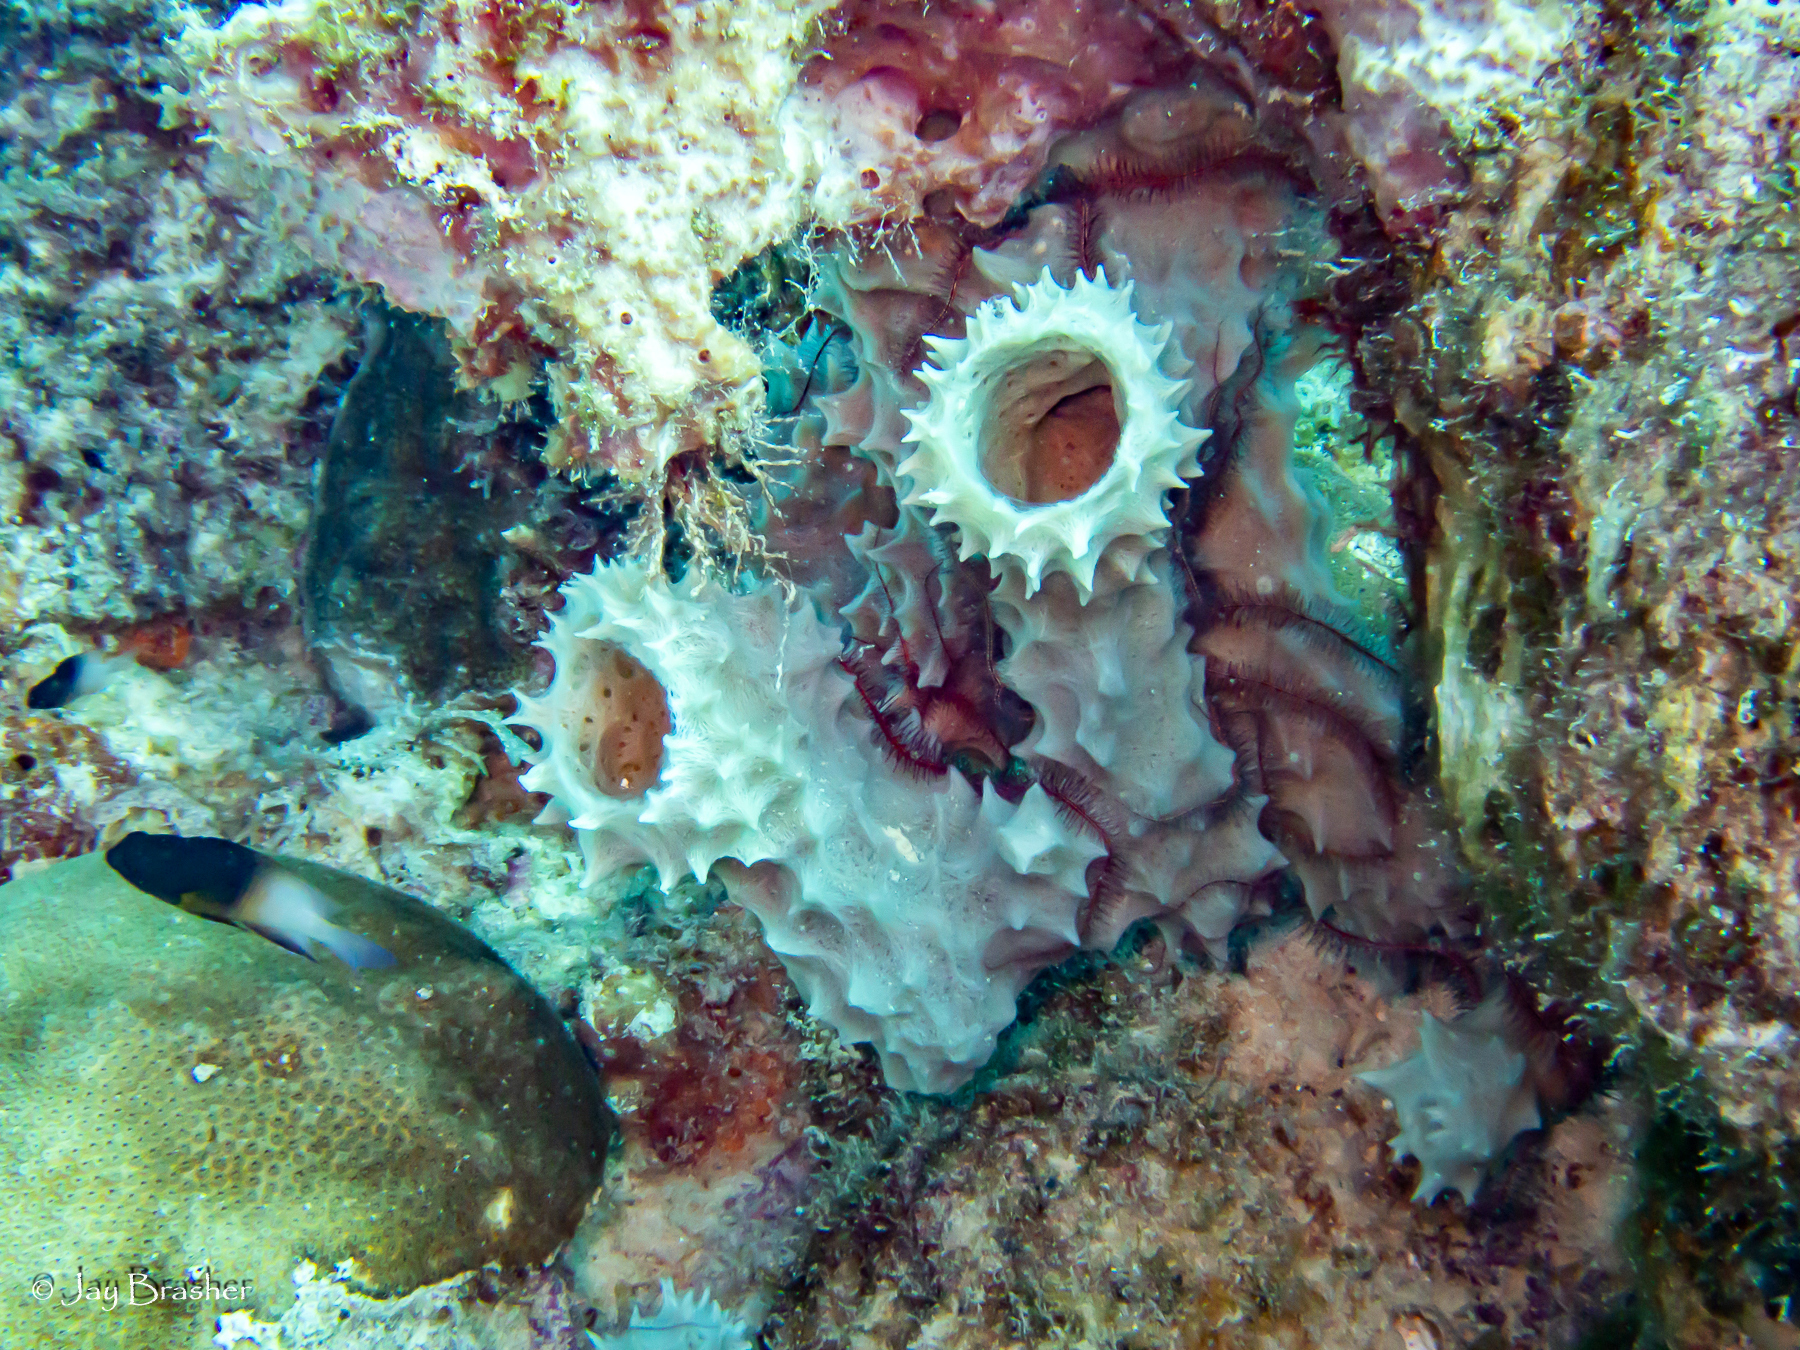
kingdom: Animalia
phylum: Porifera
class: Demospongiae
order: Haplosclerida
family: Callyspongiidae
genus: Callyspongia
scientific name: Callyspongia aculeata
